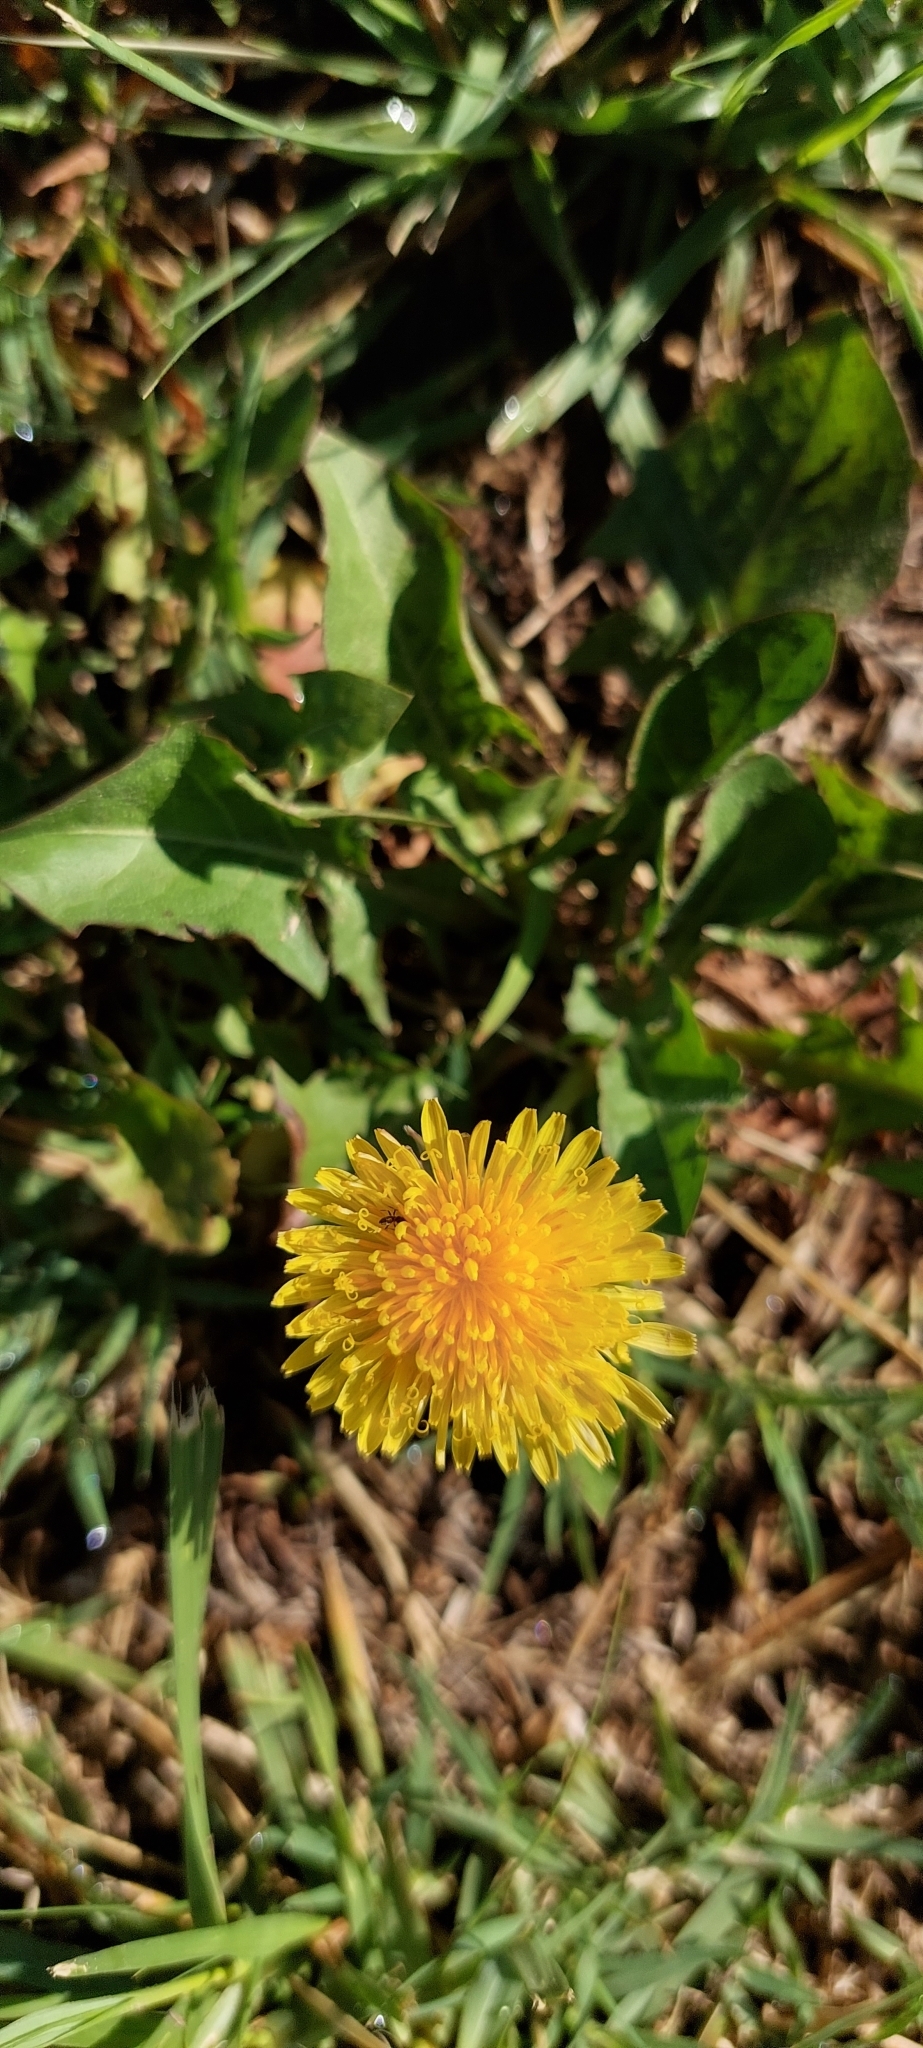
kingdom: Plantae
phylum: Tracheophyta
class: Magnoliopsida
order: Asterales
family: Asteraceae
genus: Taraxacum
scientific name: Taraxacum officinale
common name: Common dandelion
